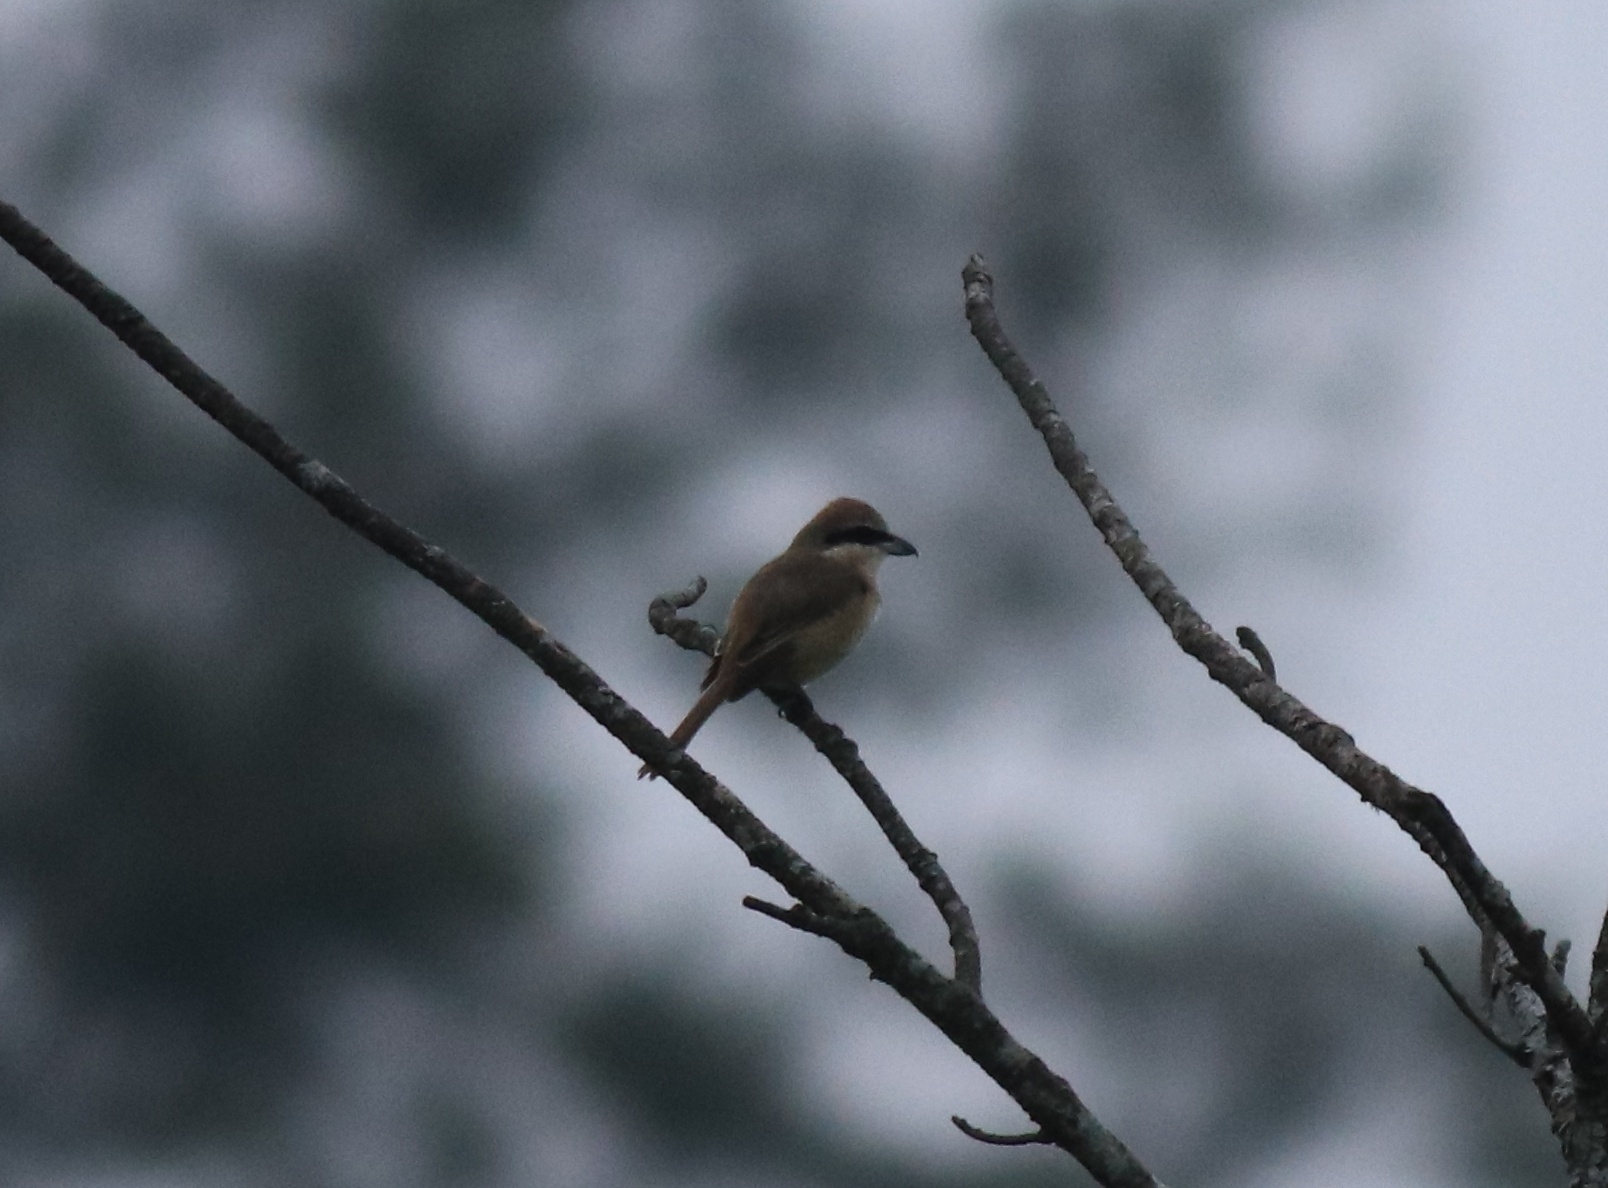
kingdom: Animalia
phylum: Chordata
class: Aves
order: Passeriformes
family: Laniidae
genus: Lanius
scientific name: Lanius cristatus
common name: Brown shrike
